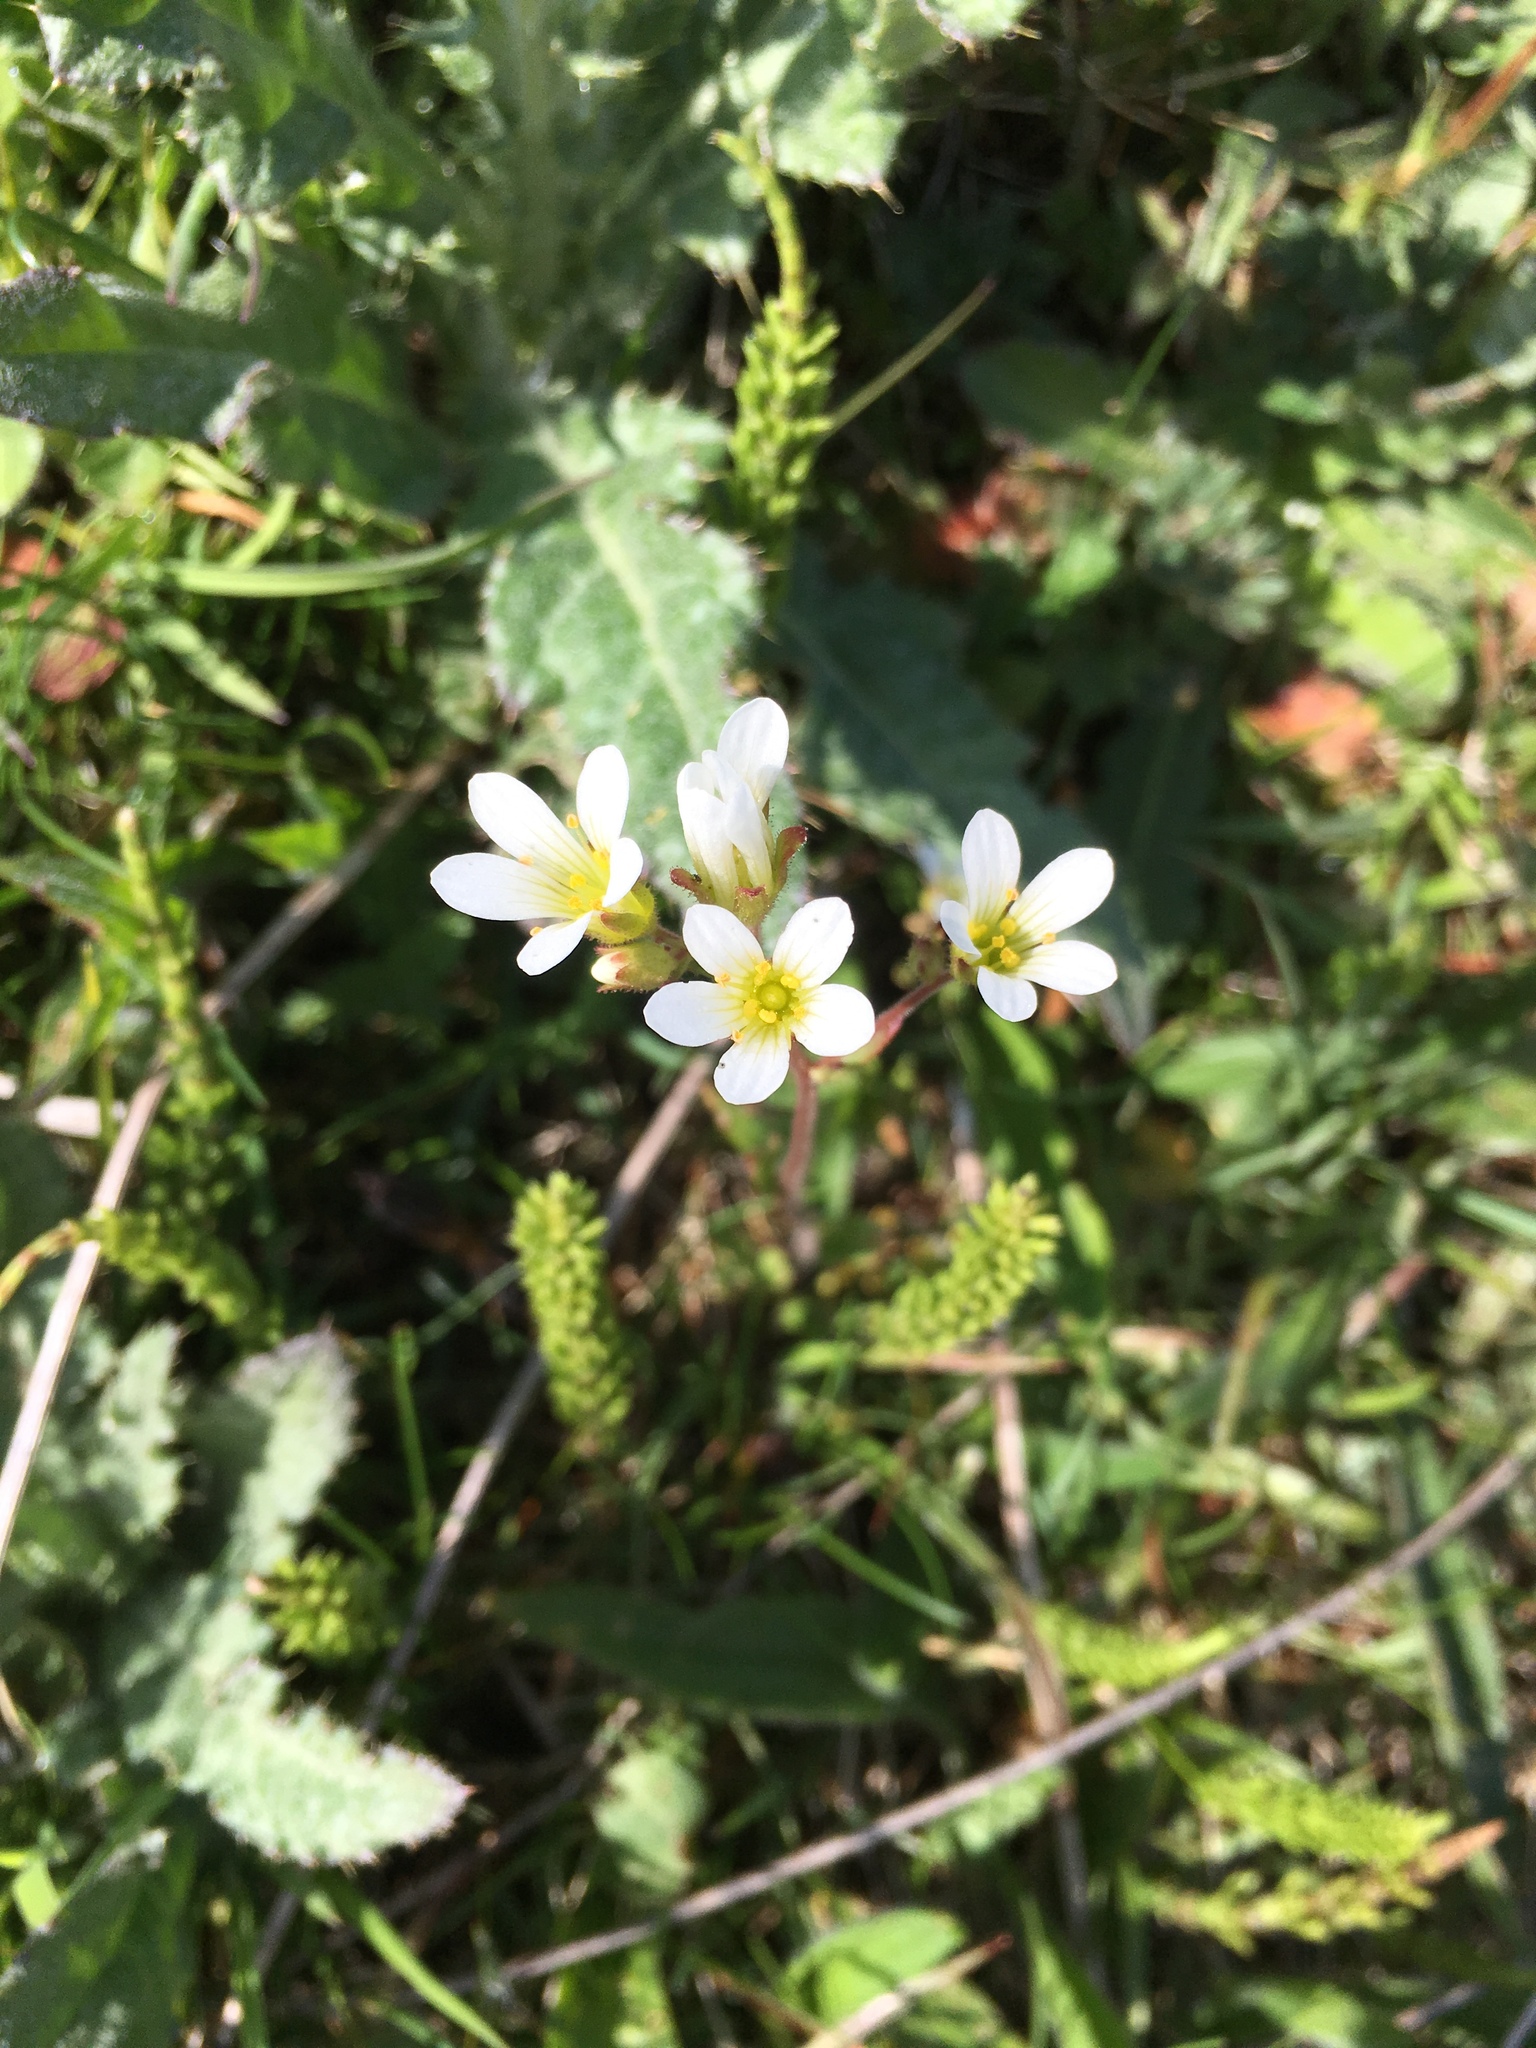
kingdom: Plantae
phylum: Tracheophyta
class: Magnoliopsida
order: Saxifragales
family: Saxifragaceae
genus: Saxifraga
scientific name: Saxifraga granulata
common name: Meadow saxifrage
